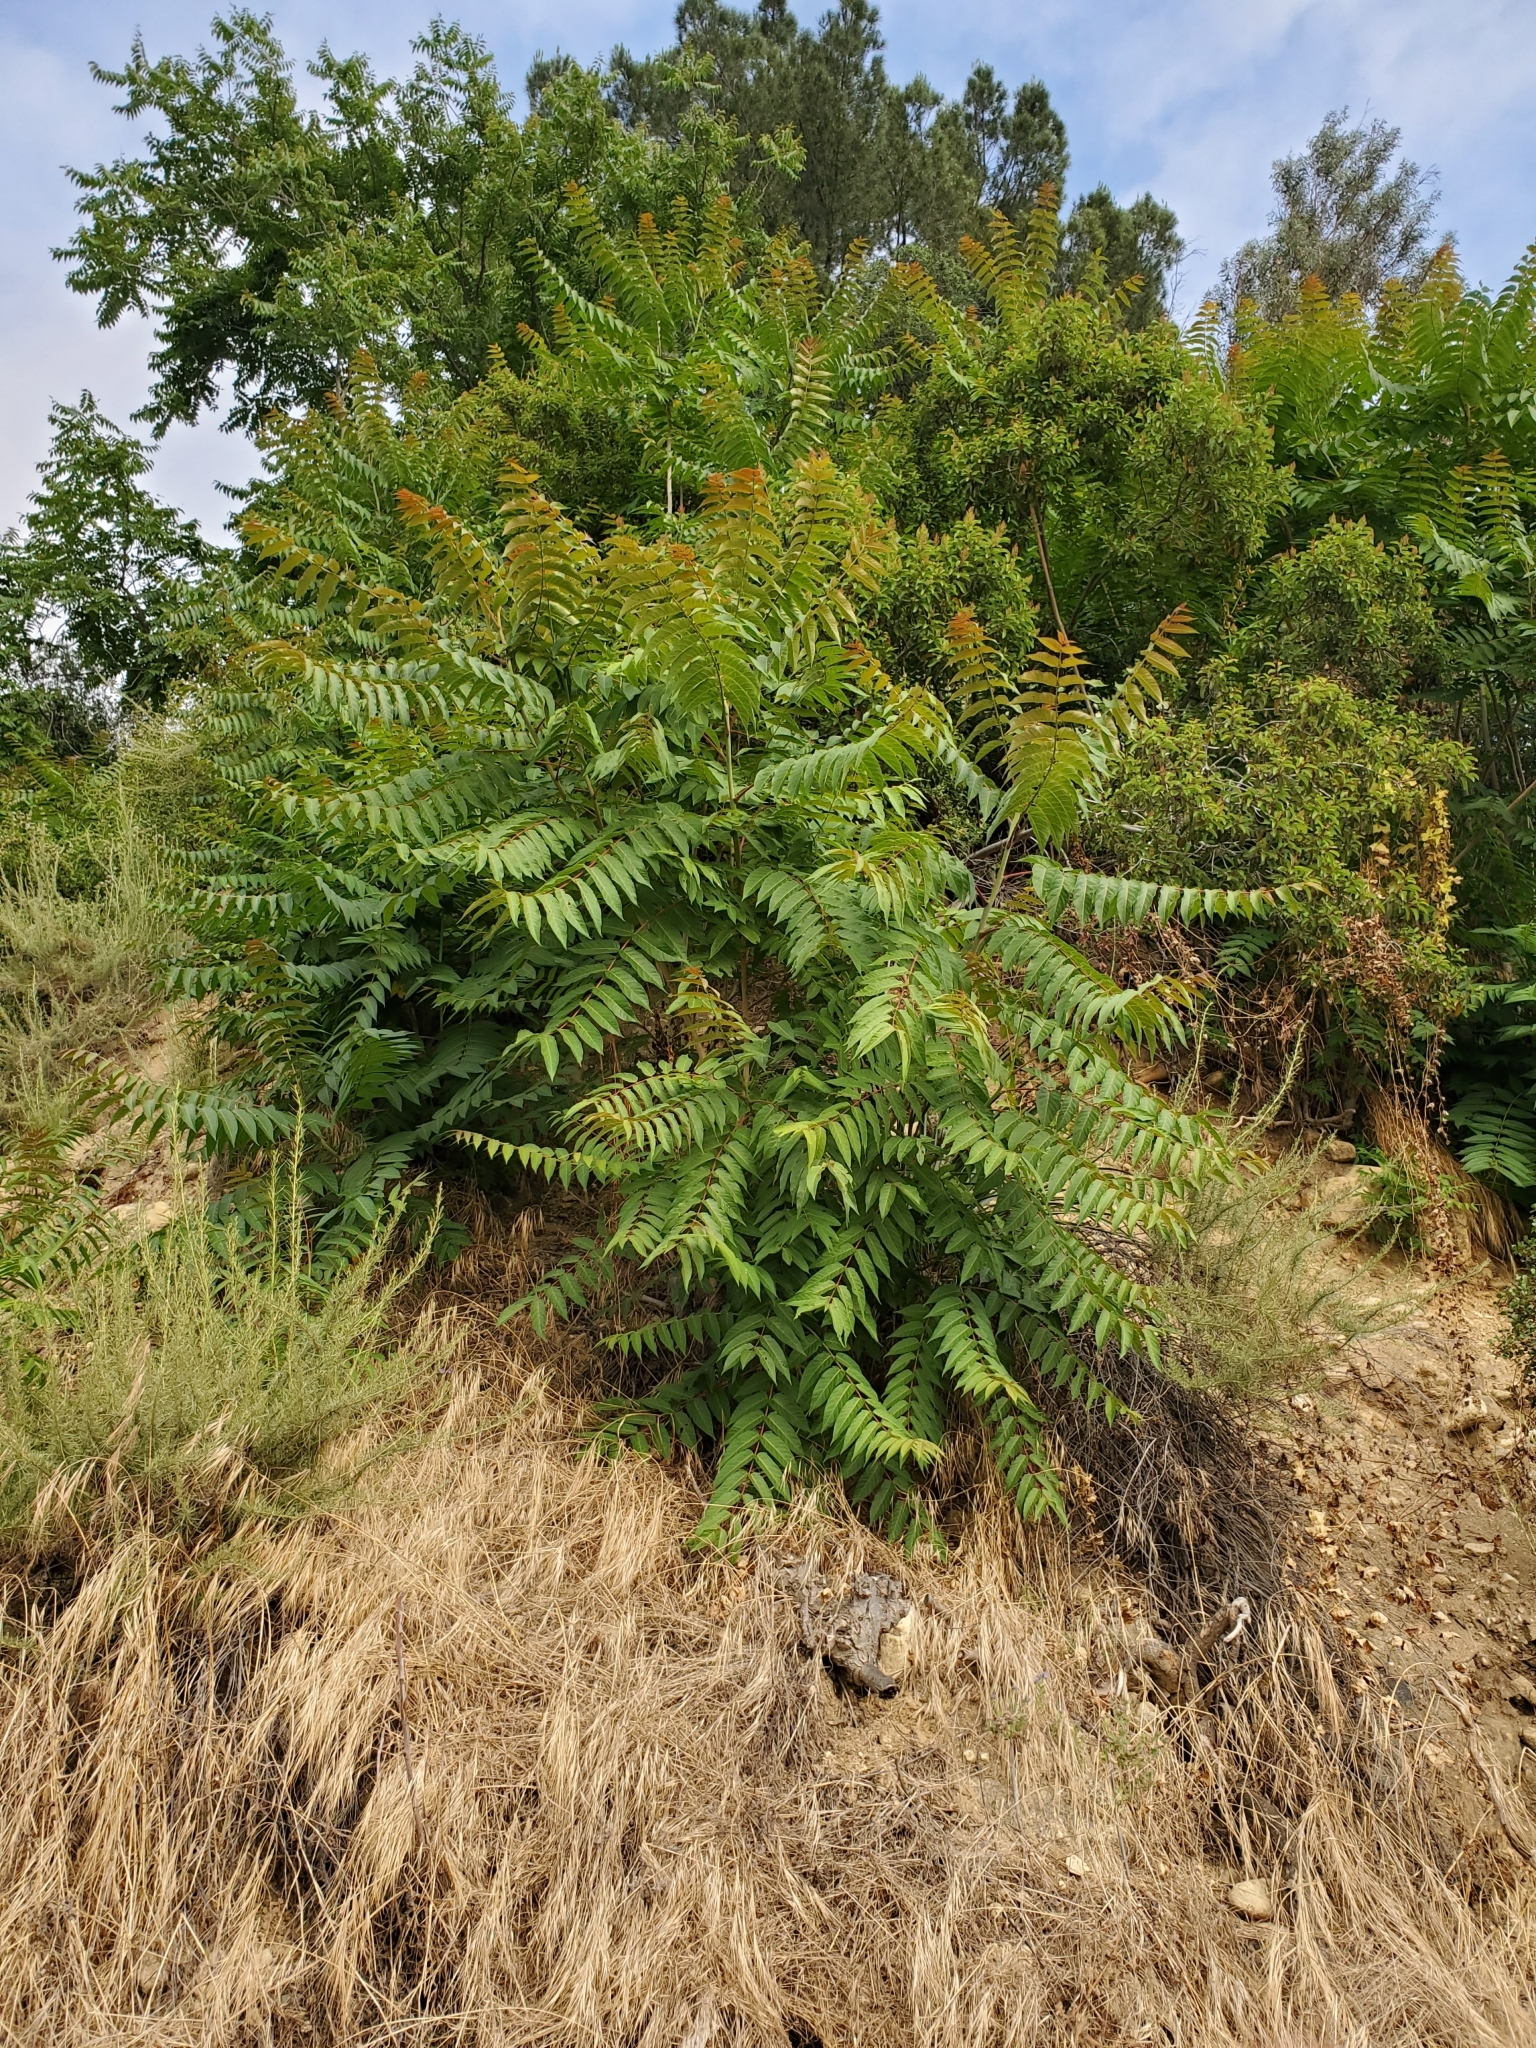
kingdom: Plantae
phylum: Tracheophyta
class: Magnoliopsida
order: Sapindales
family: Simaroubaceae
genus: Ailanthus
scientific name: Ailanthus altissima
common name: Tree-of-heaven
